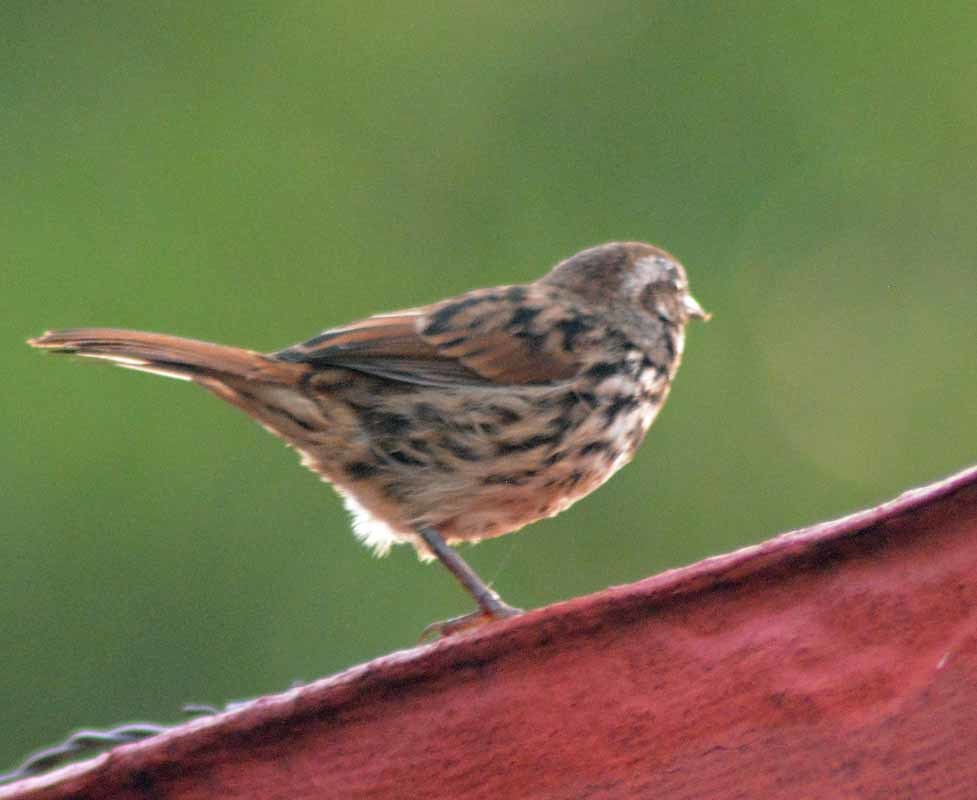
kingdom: Animalia
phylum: Chordata
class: Aves
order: Passeriformes
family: Passerellidae
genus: Melospiza
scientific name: Melospiza melodia
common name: Song sparrow
